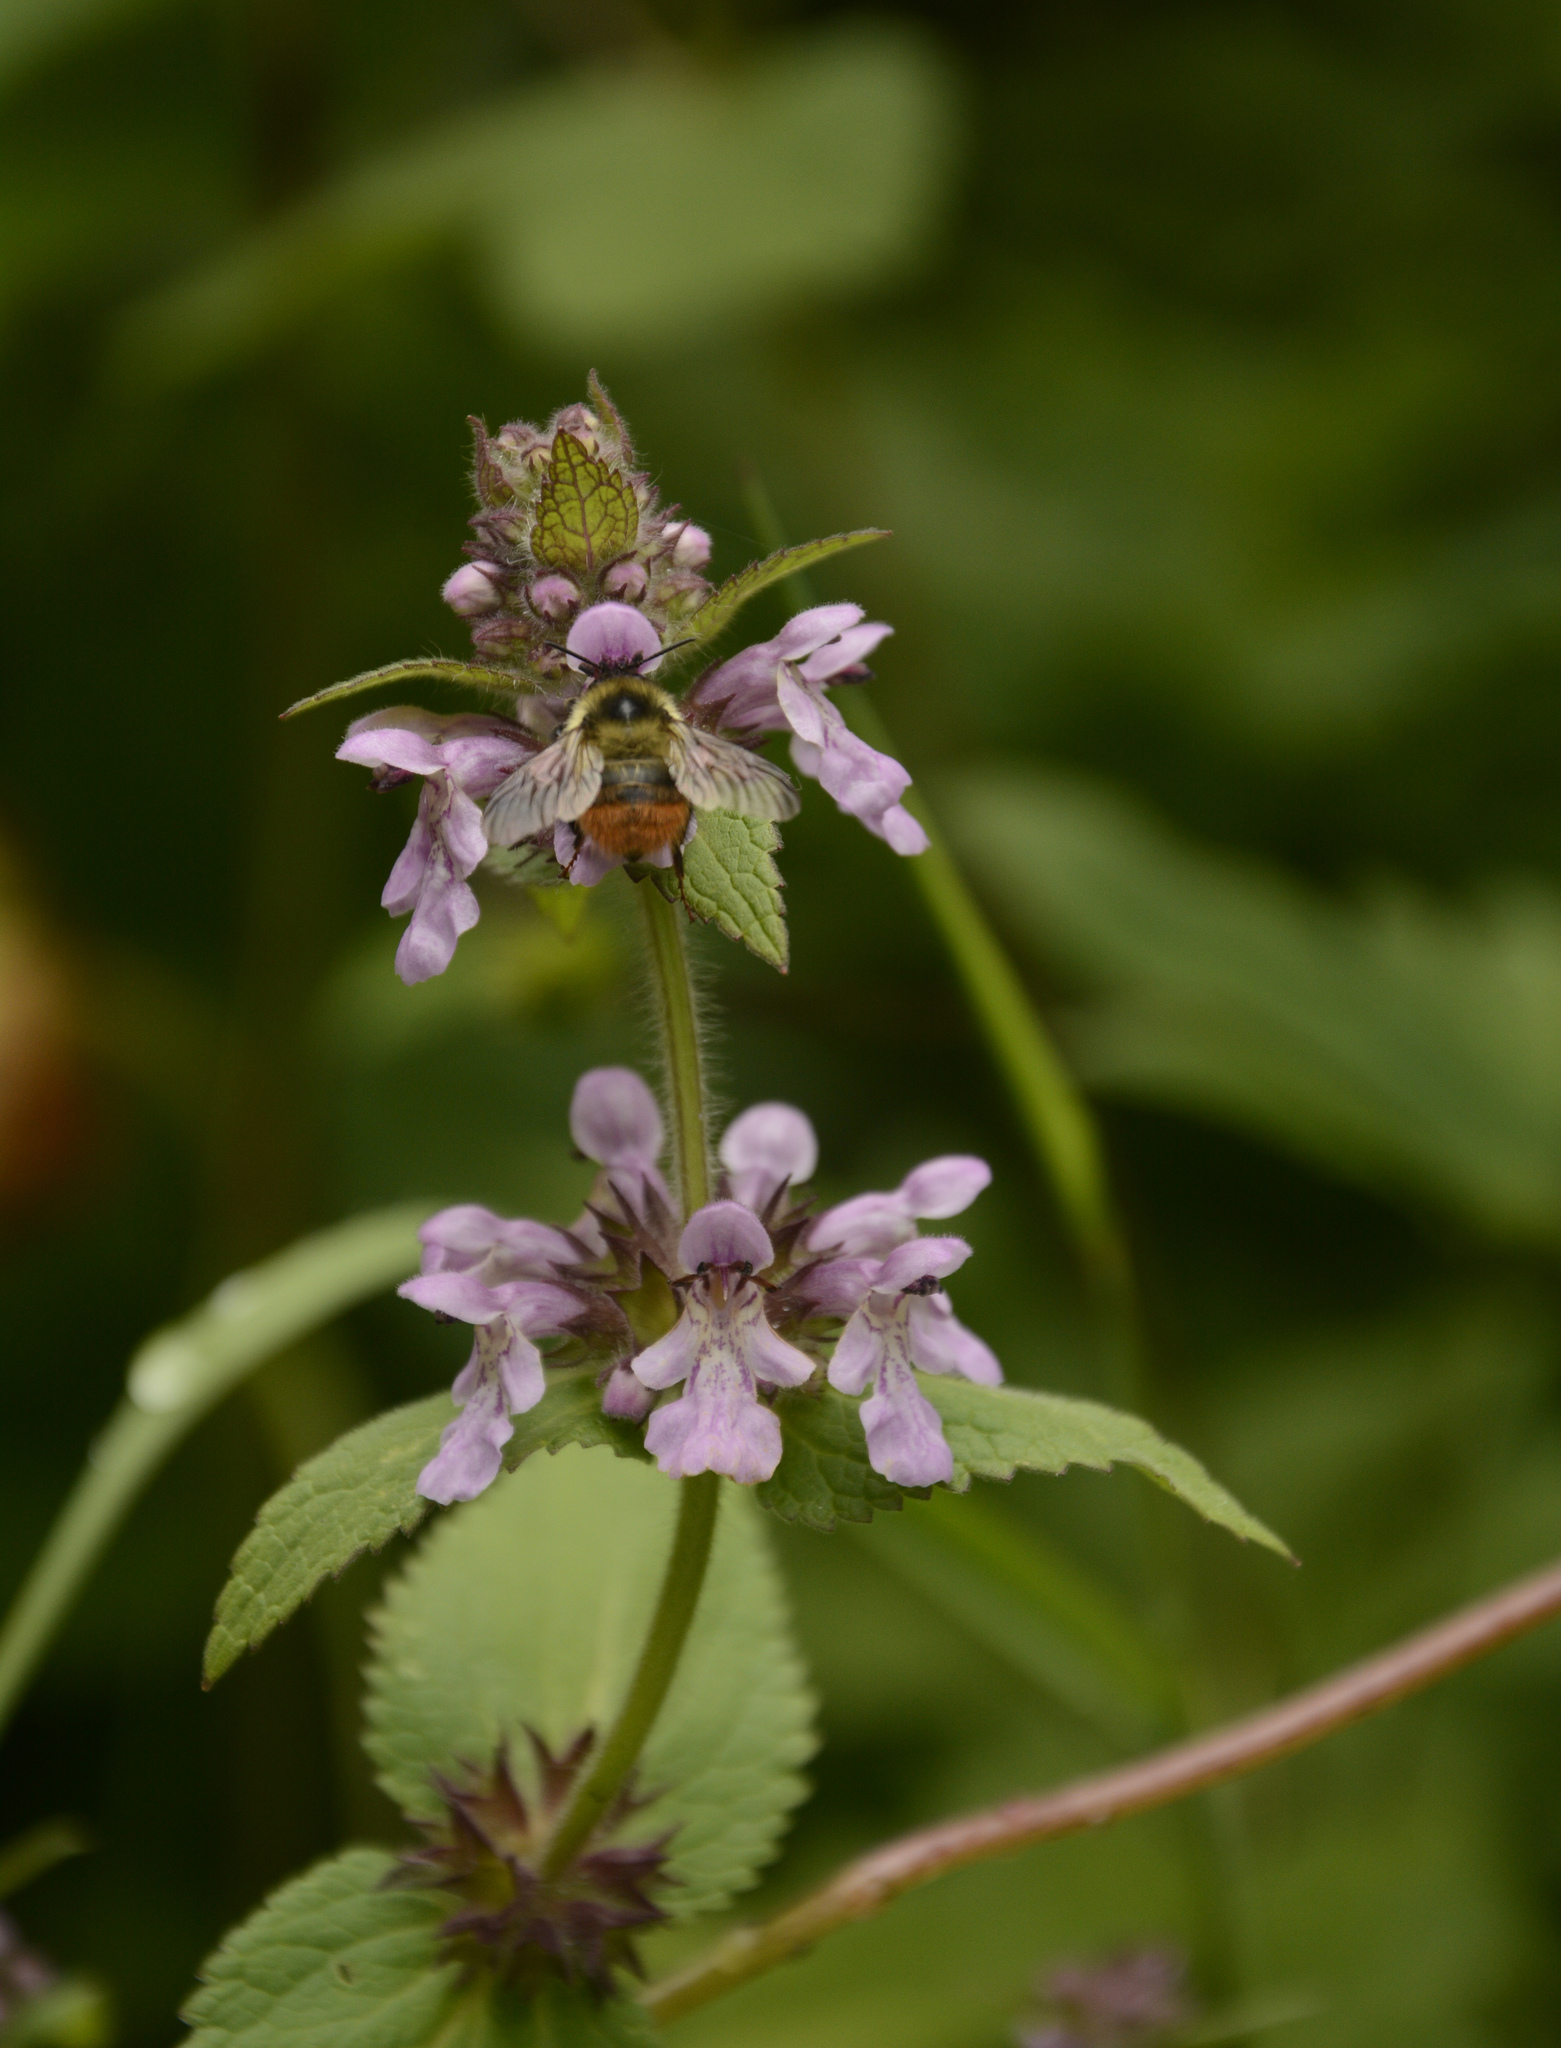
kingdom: Plantae
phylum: Tracheophyta
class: Magnoliopsida
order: Lamiales
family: Lamiaceae
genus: Stachys
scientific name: Stachys splendens
